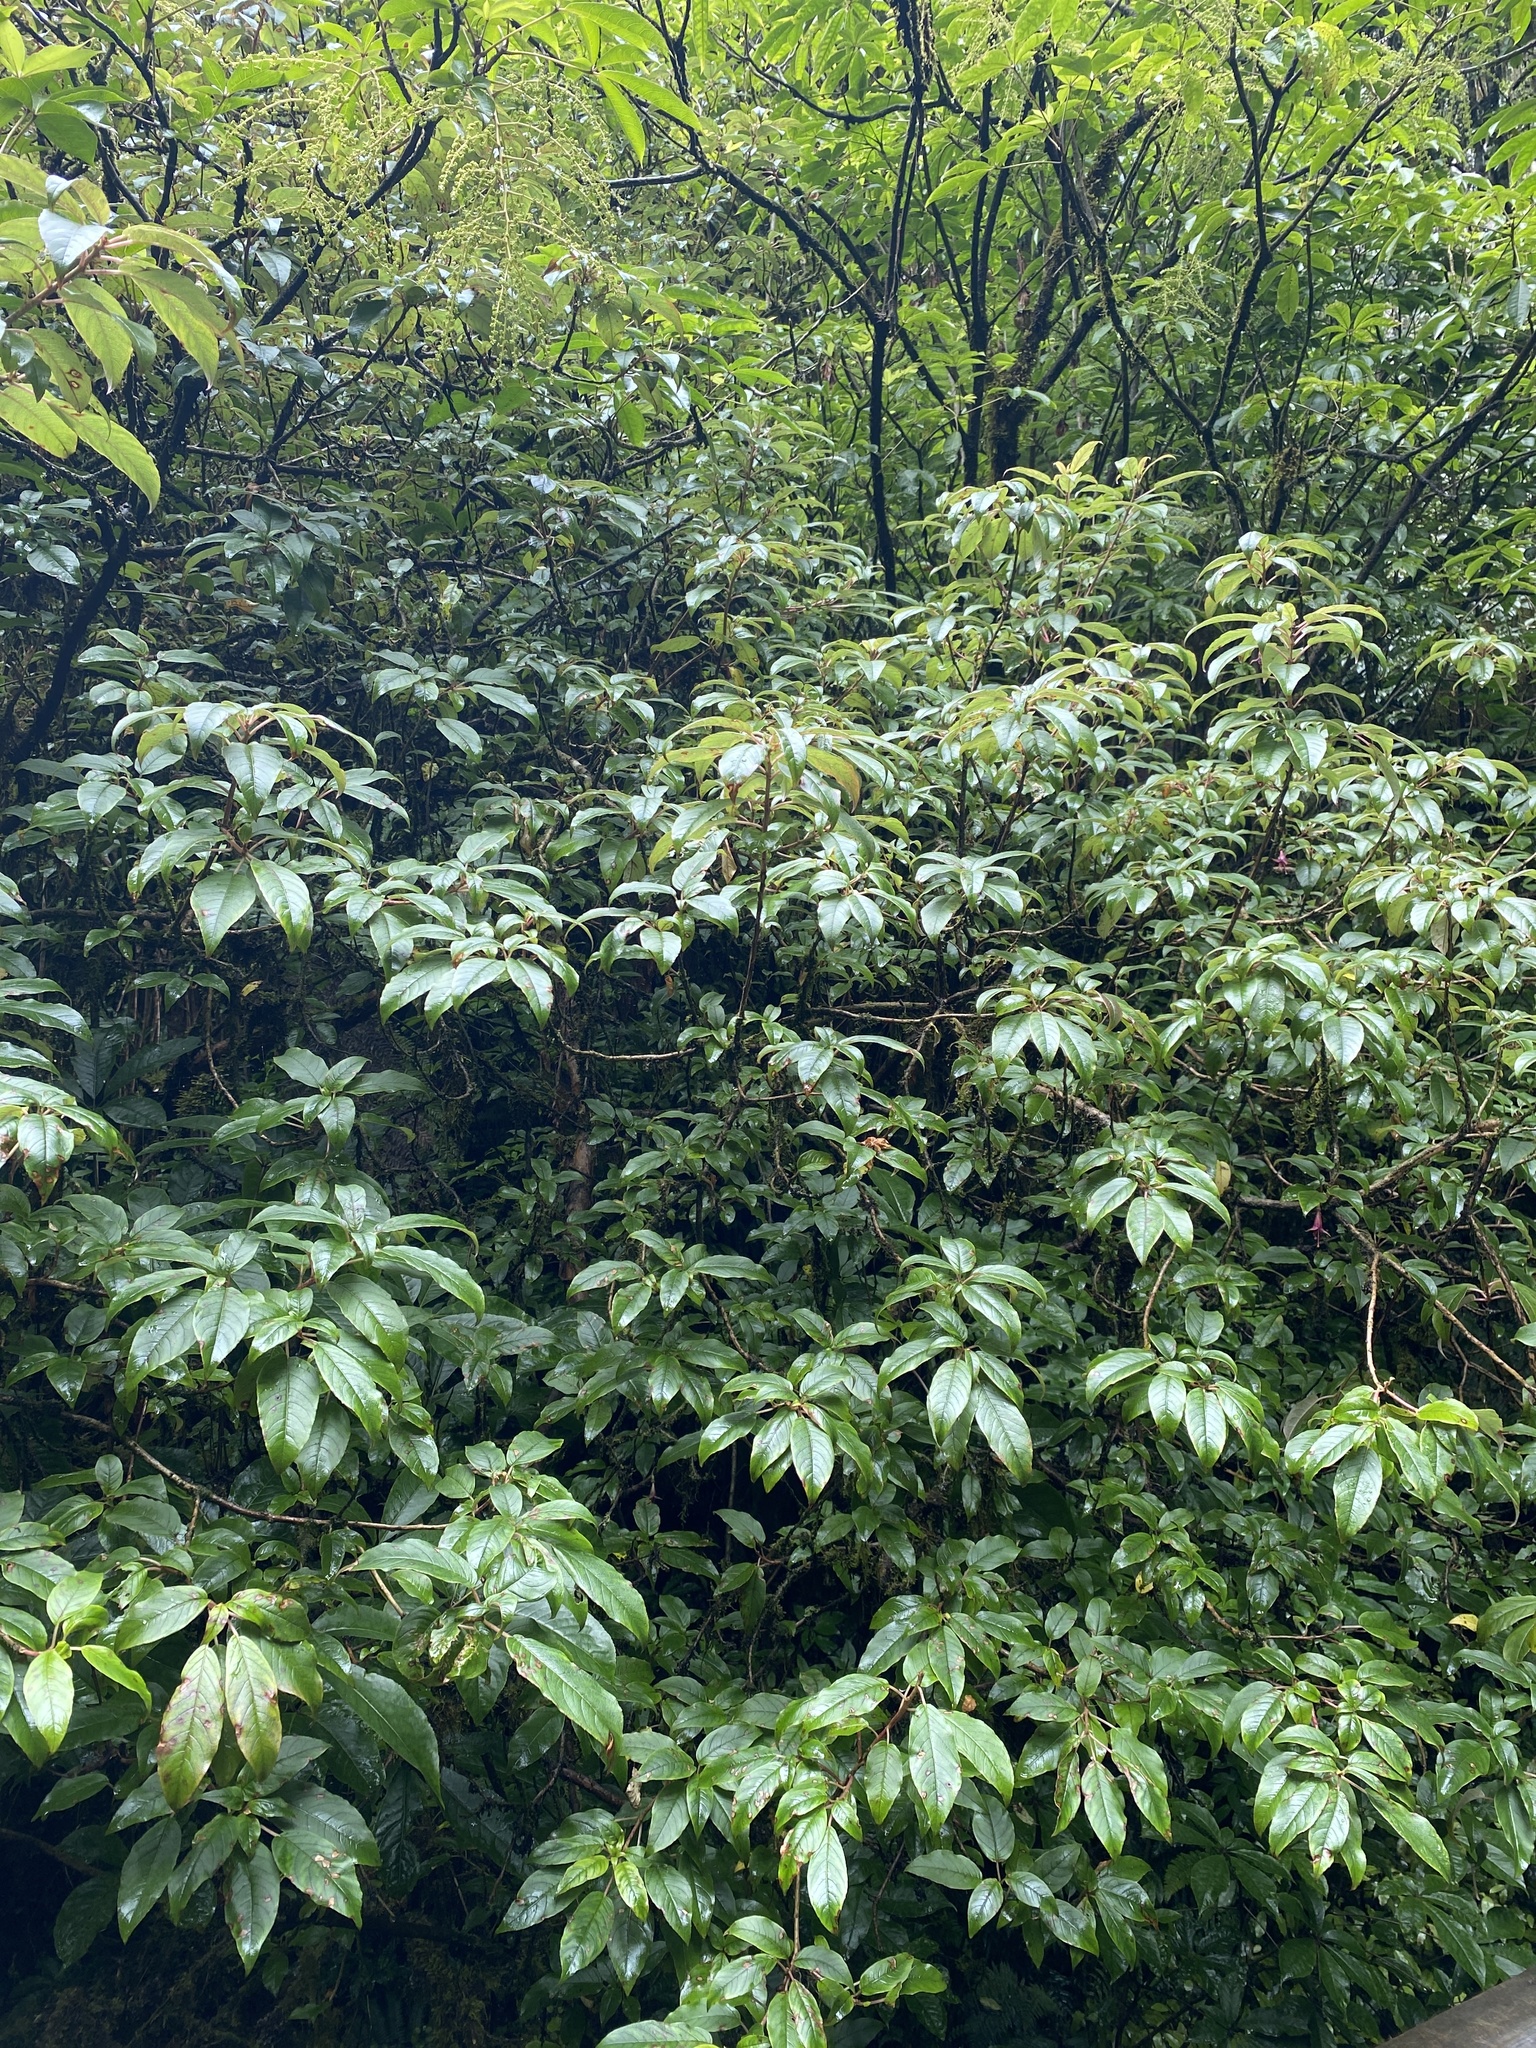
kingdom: Plantae
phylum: Tracheophyta
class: Magnoliopsida
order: Myrtales
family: Onagraceae
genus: Fuchsia
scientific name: Fuchsia excorticata
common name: Tree fuchsia
